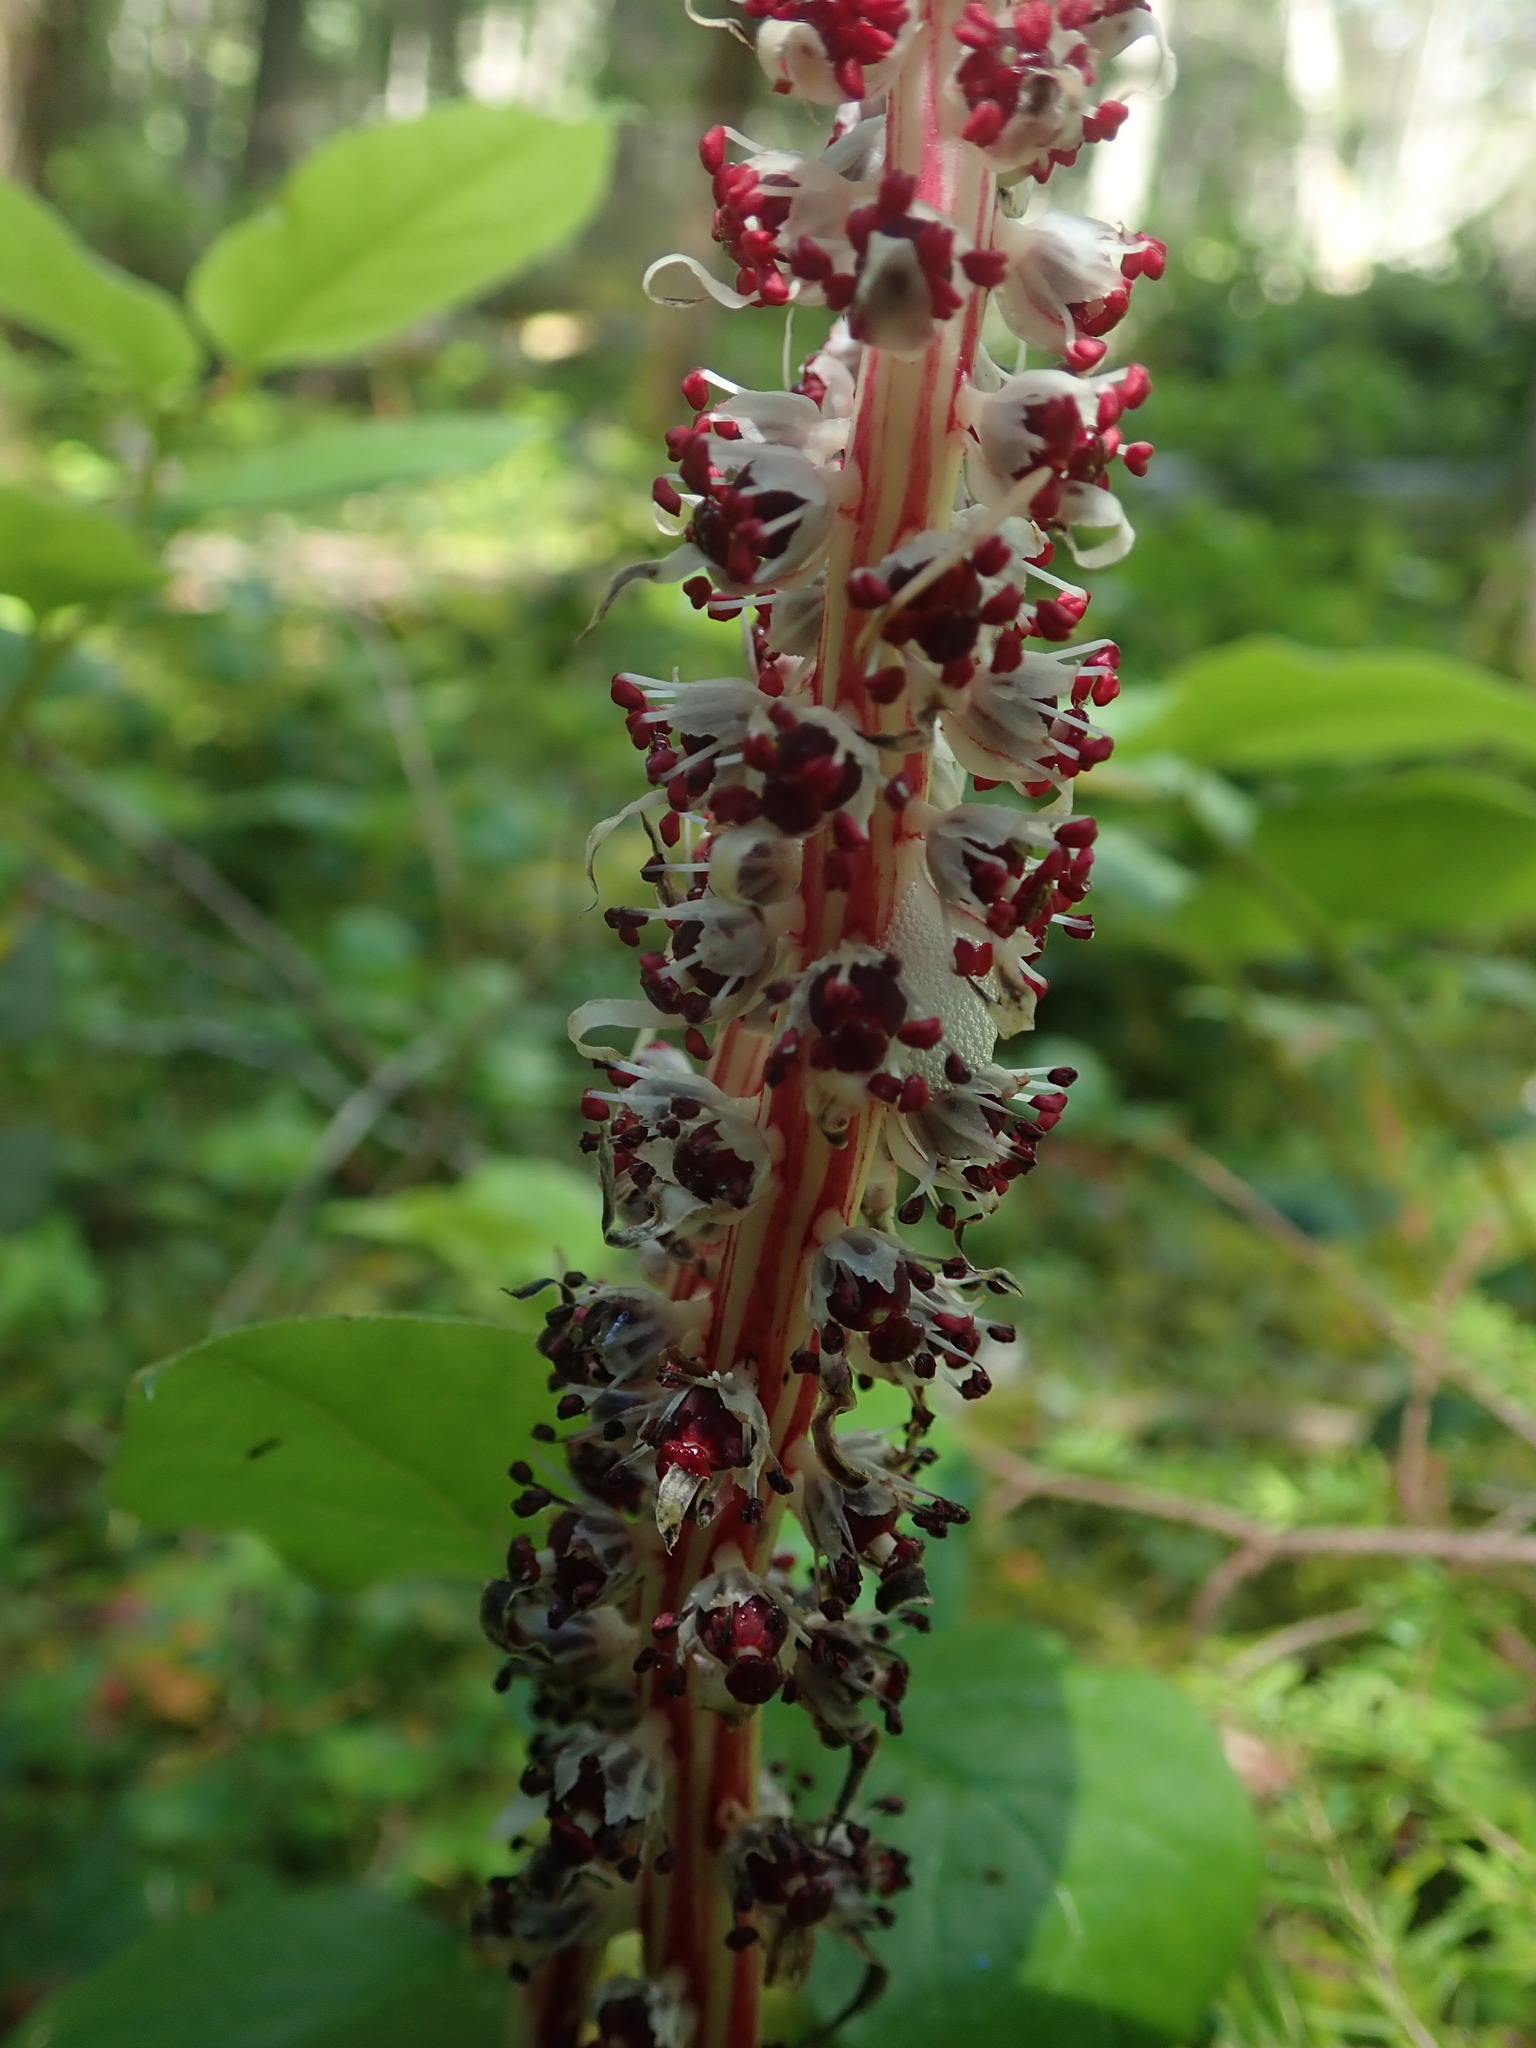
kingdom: Plantae
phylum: Tracheophyta
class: Magnoliopsida
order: Ericales
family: Ericaceae
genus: Allotropa
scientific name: Allotropa virgata
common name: Candy-striped allotropa
